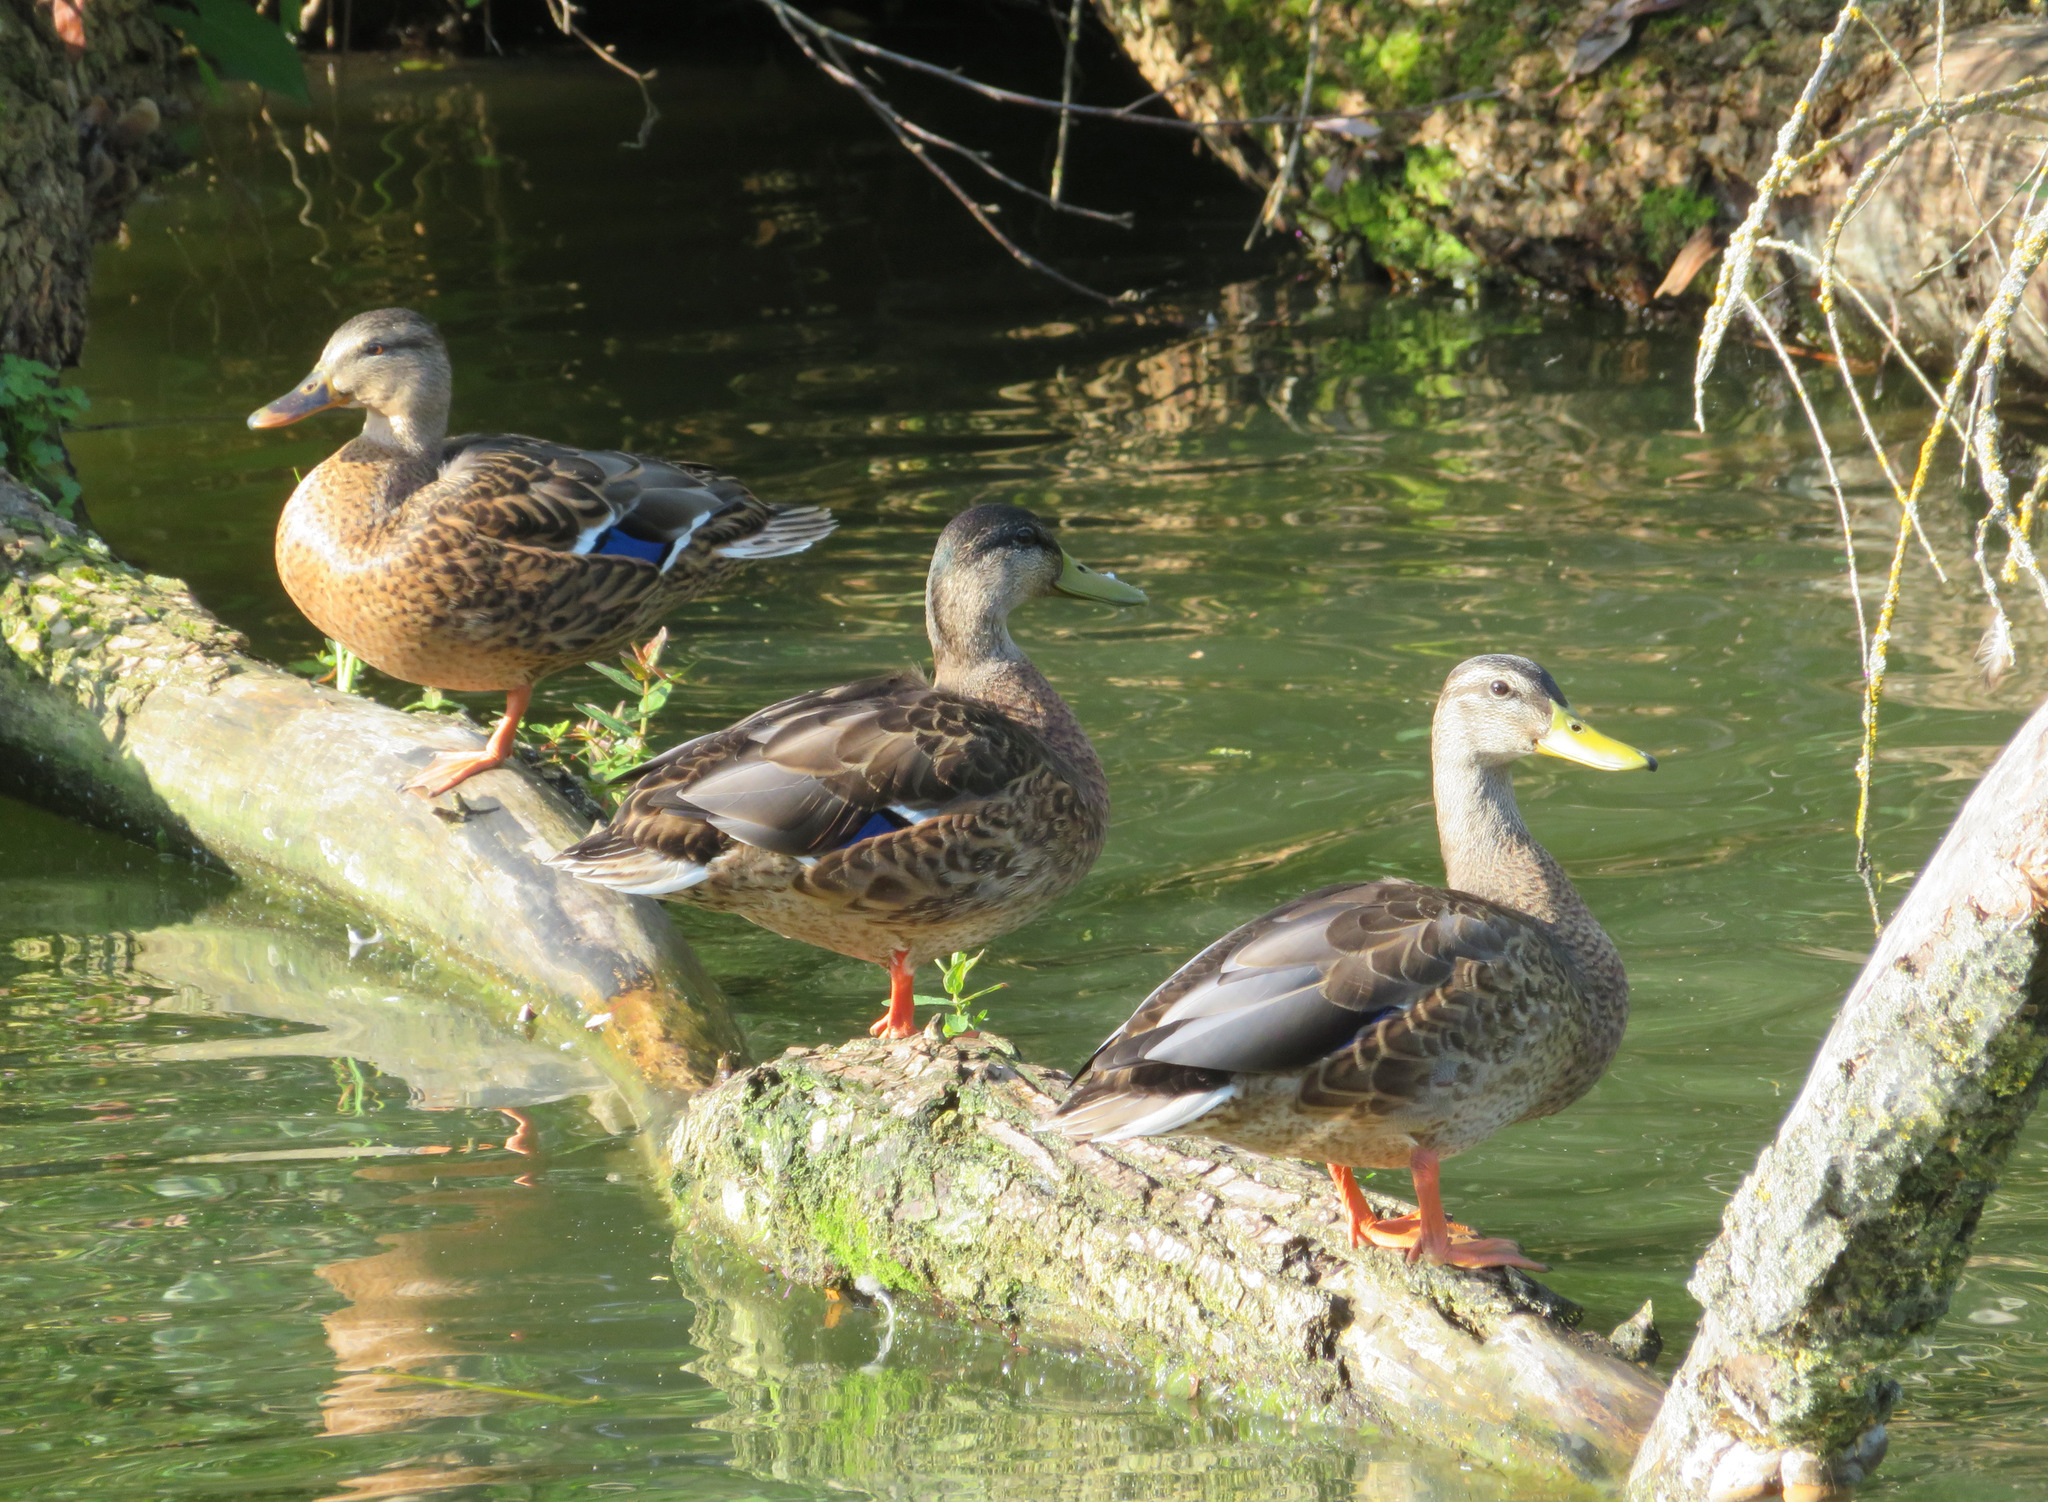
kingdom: Animalia
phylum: Chordata
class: Aves
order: Anseriformes
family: Anatidae
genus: Anas
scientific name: Anas platyrhynchos
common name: Mallard
